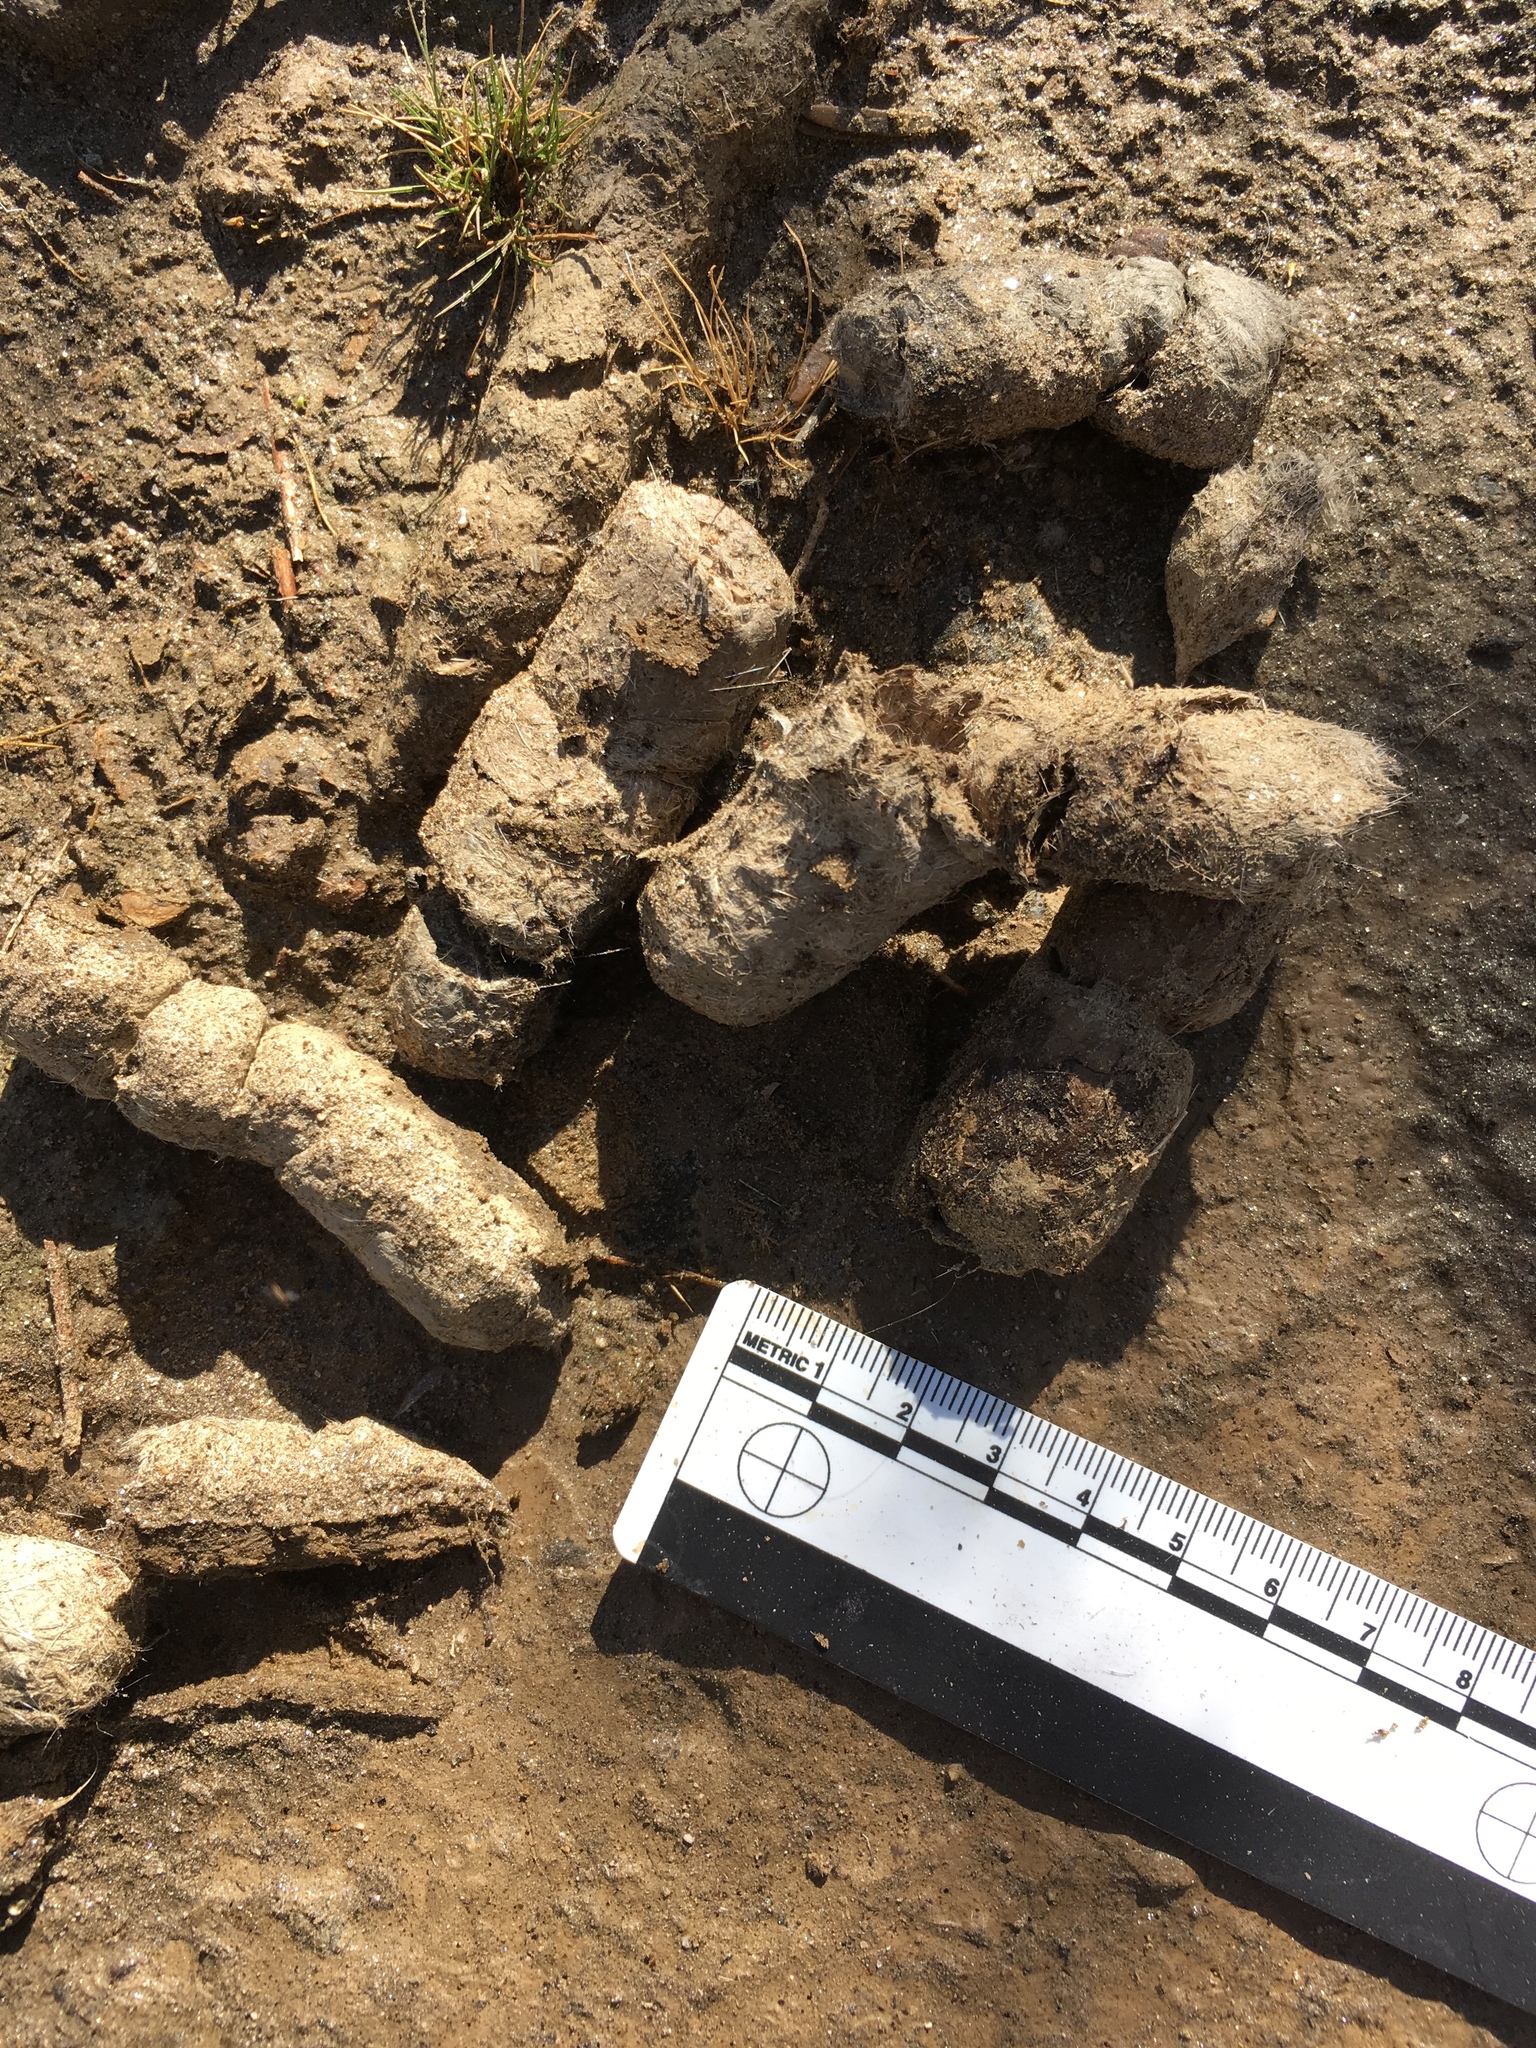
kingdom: Animalia
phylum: Chordata
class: Mammalia
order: Carnivora
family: Felidae
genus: Lynx
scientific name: Lynx rufus
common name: Bobcat
